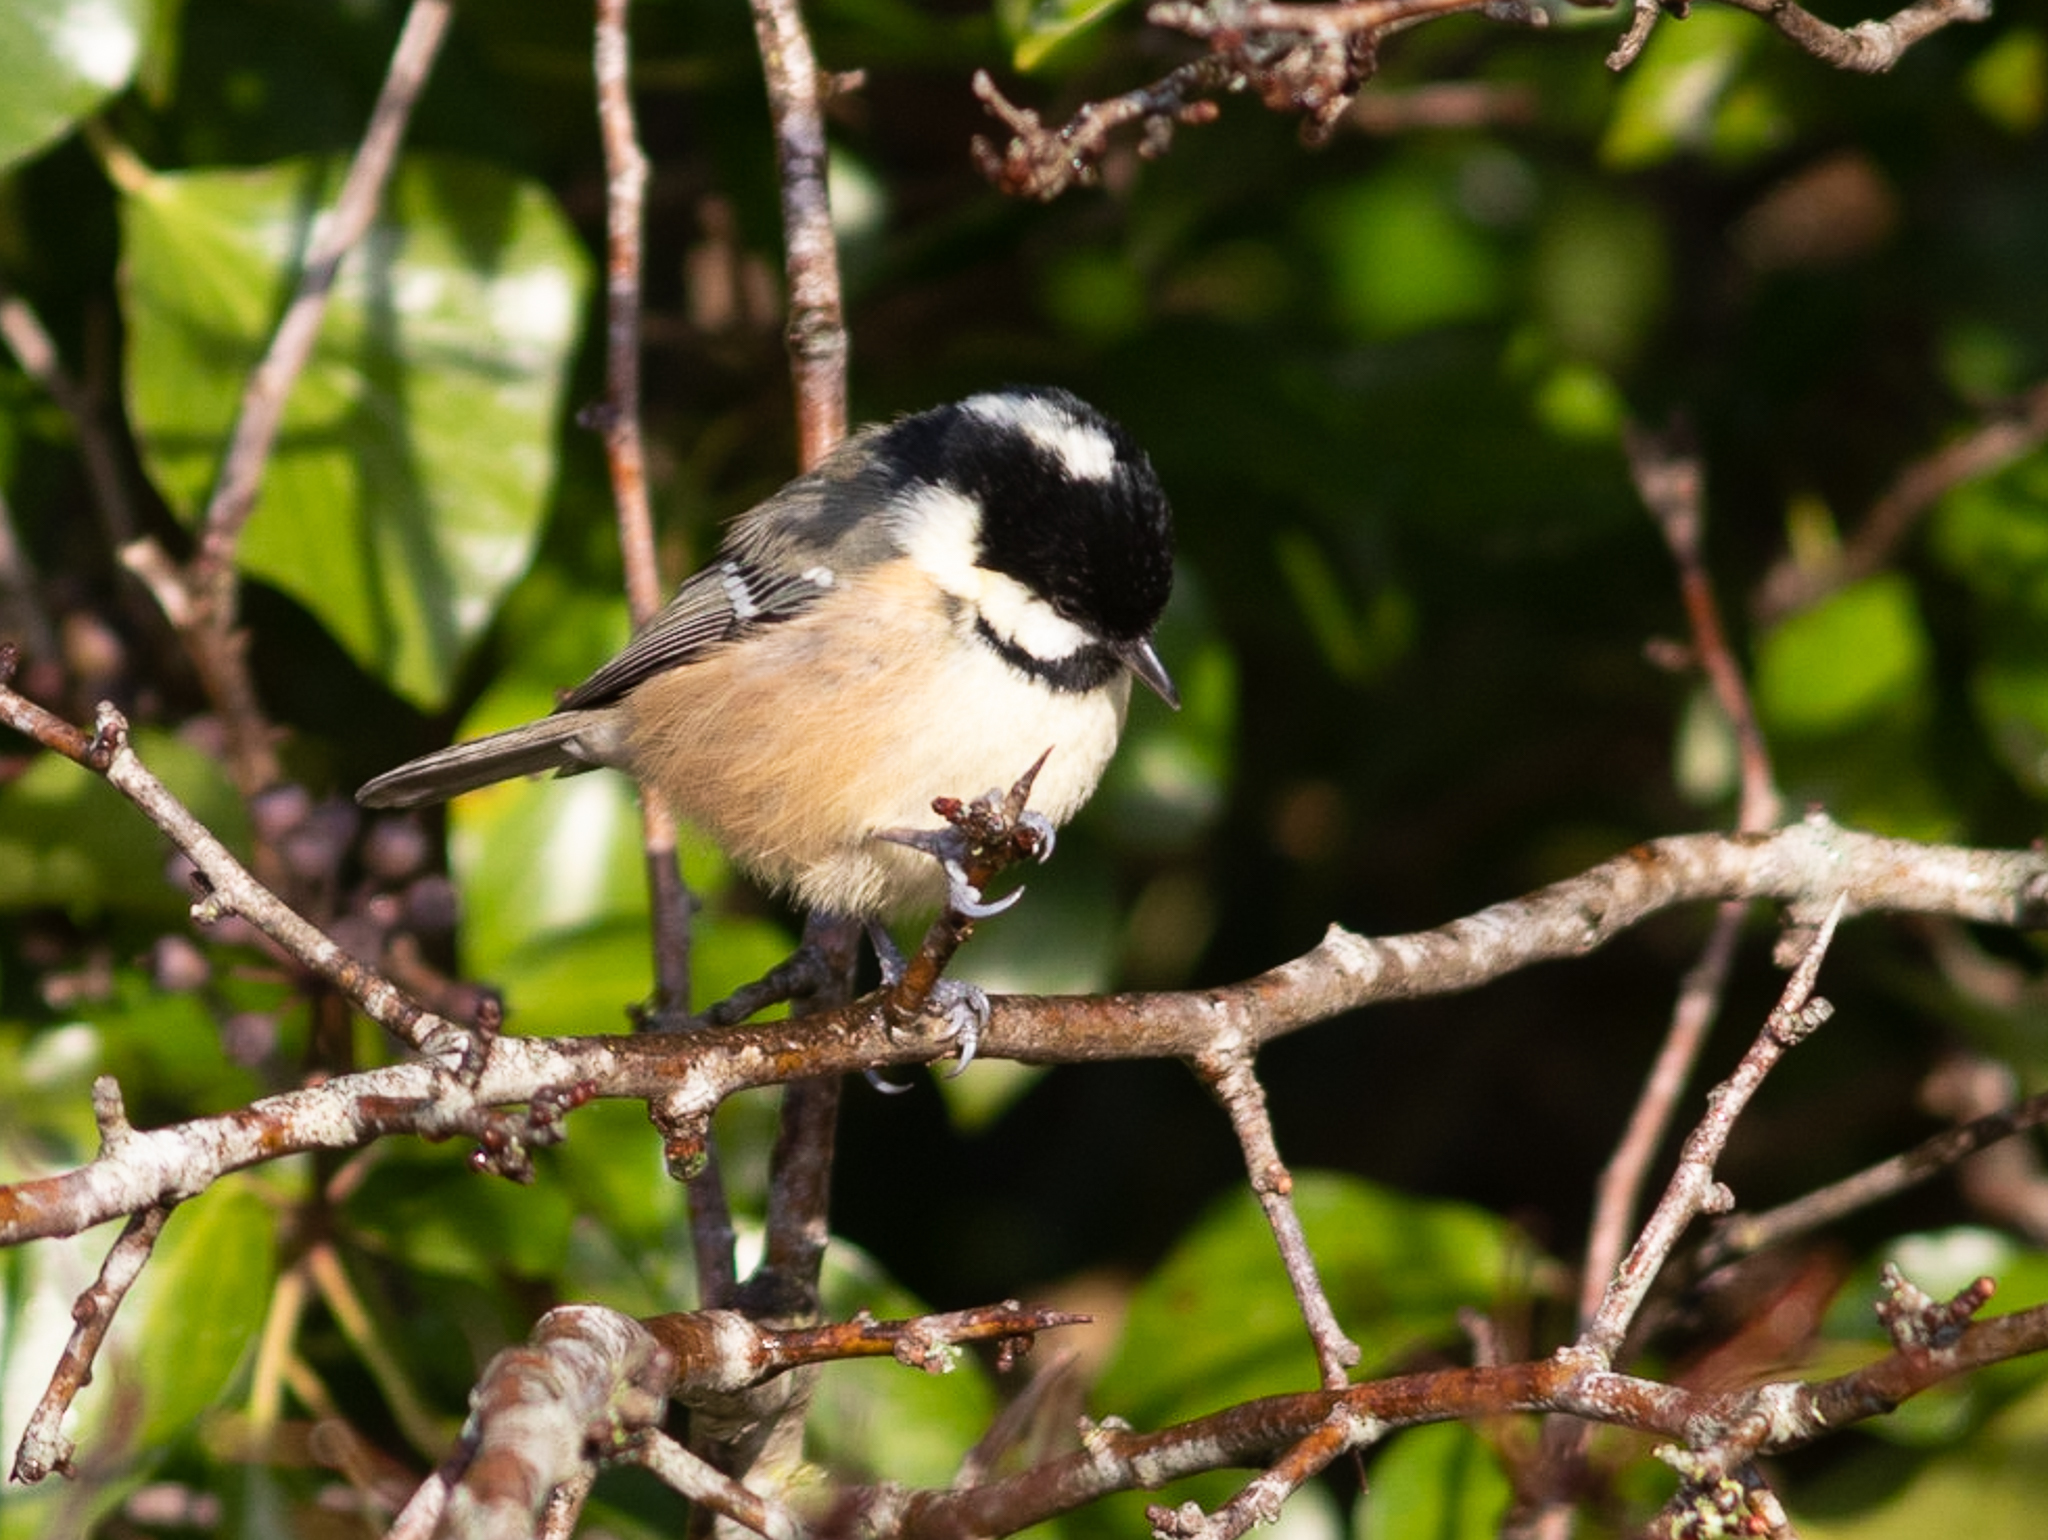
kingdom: Animalia
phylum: Chordata
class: Aves
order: Passeriformes
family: Paridae
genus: Periparus
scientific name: Periparus ater
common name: Coal tit
